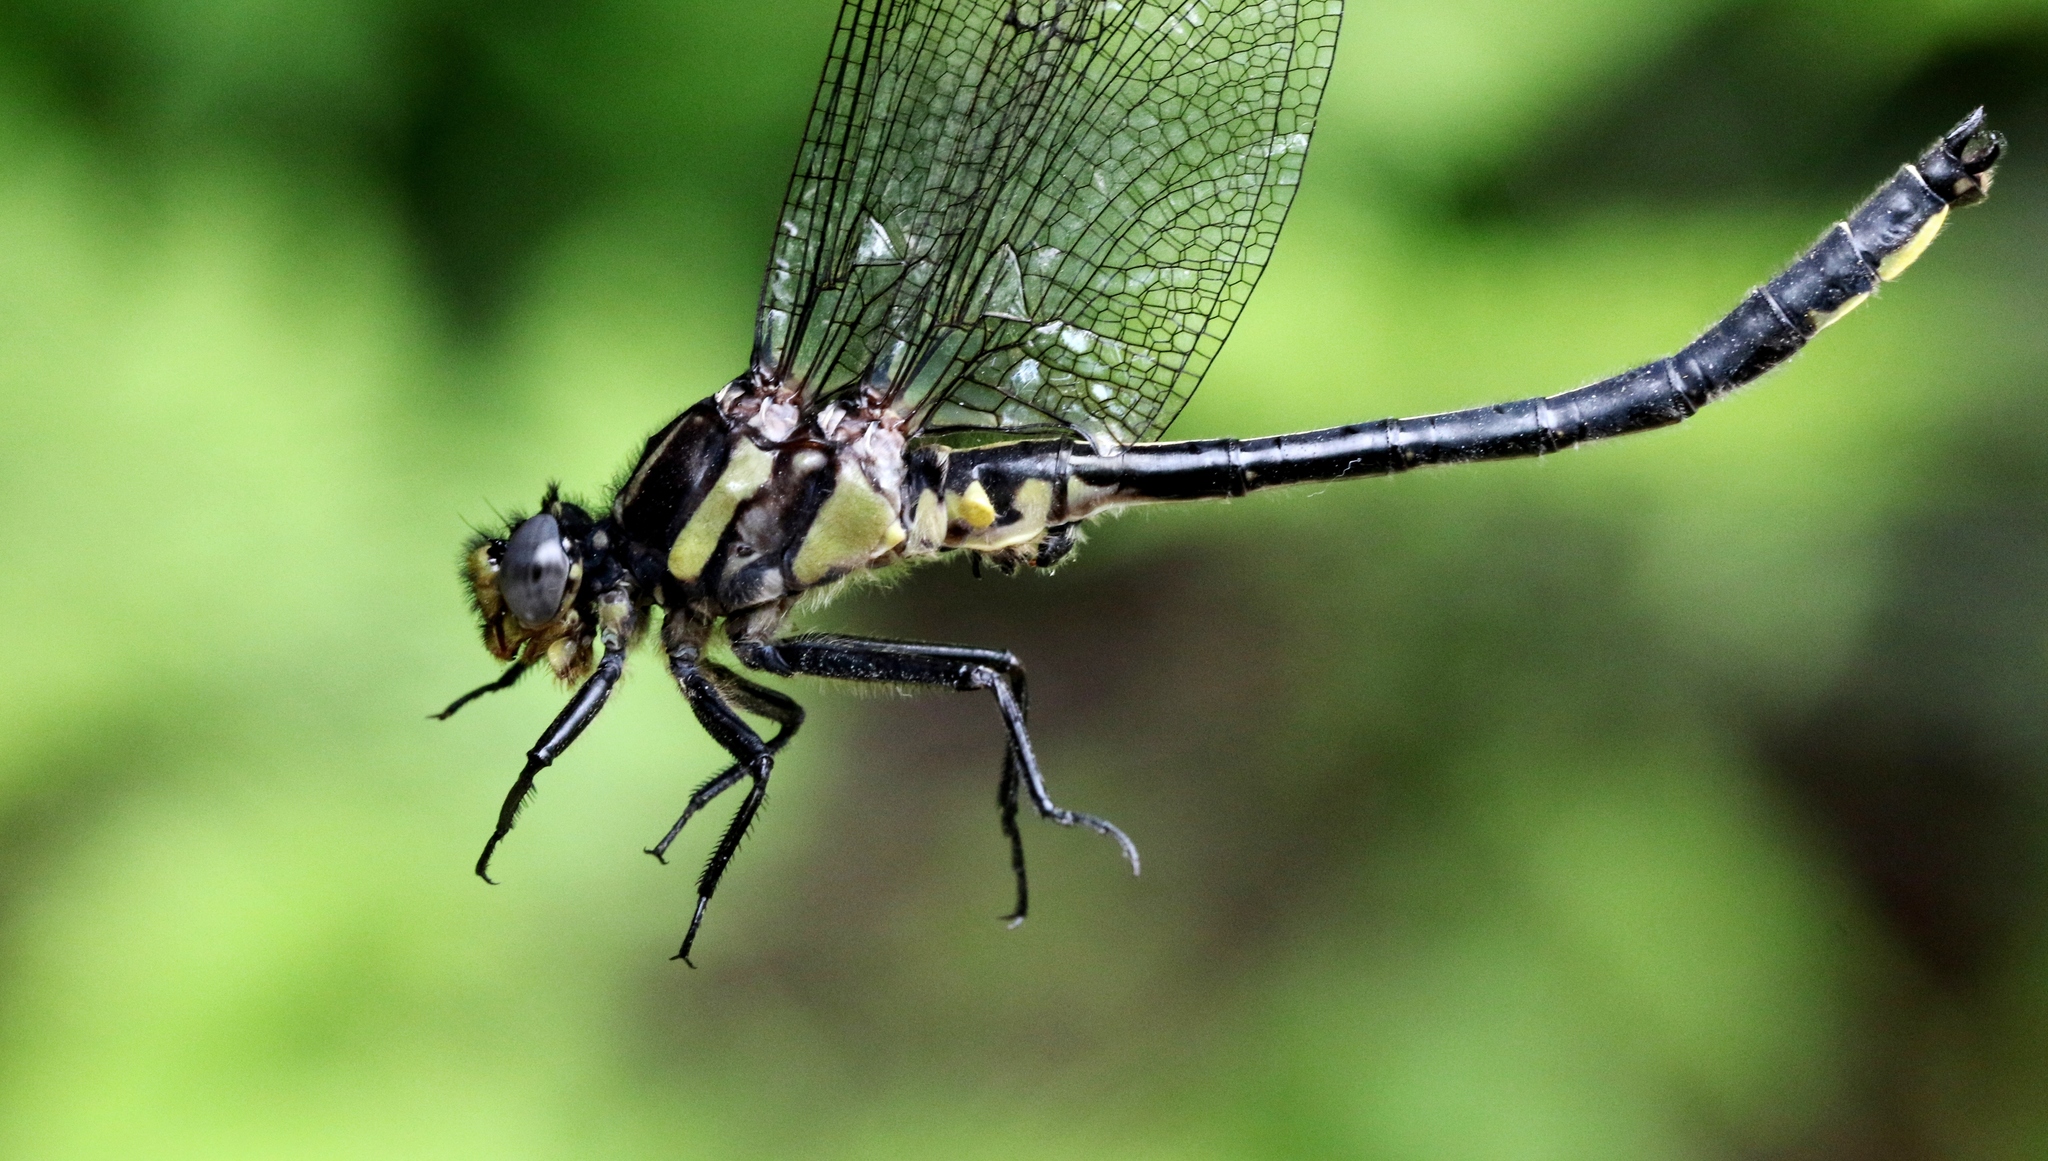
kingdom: Animalia
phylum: Arthropoda
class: Insecta
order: Odonata
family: Gomphidae
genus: Phanogomphus
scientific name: Phanogomphus descriptus
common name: Harpoon clubtail
